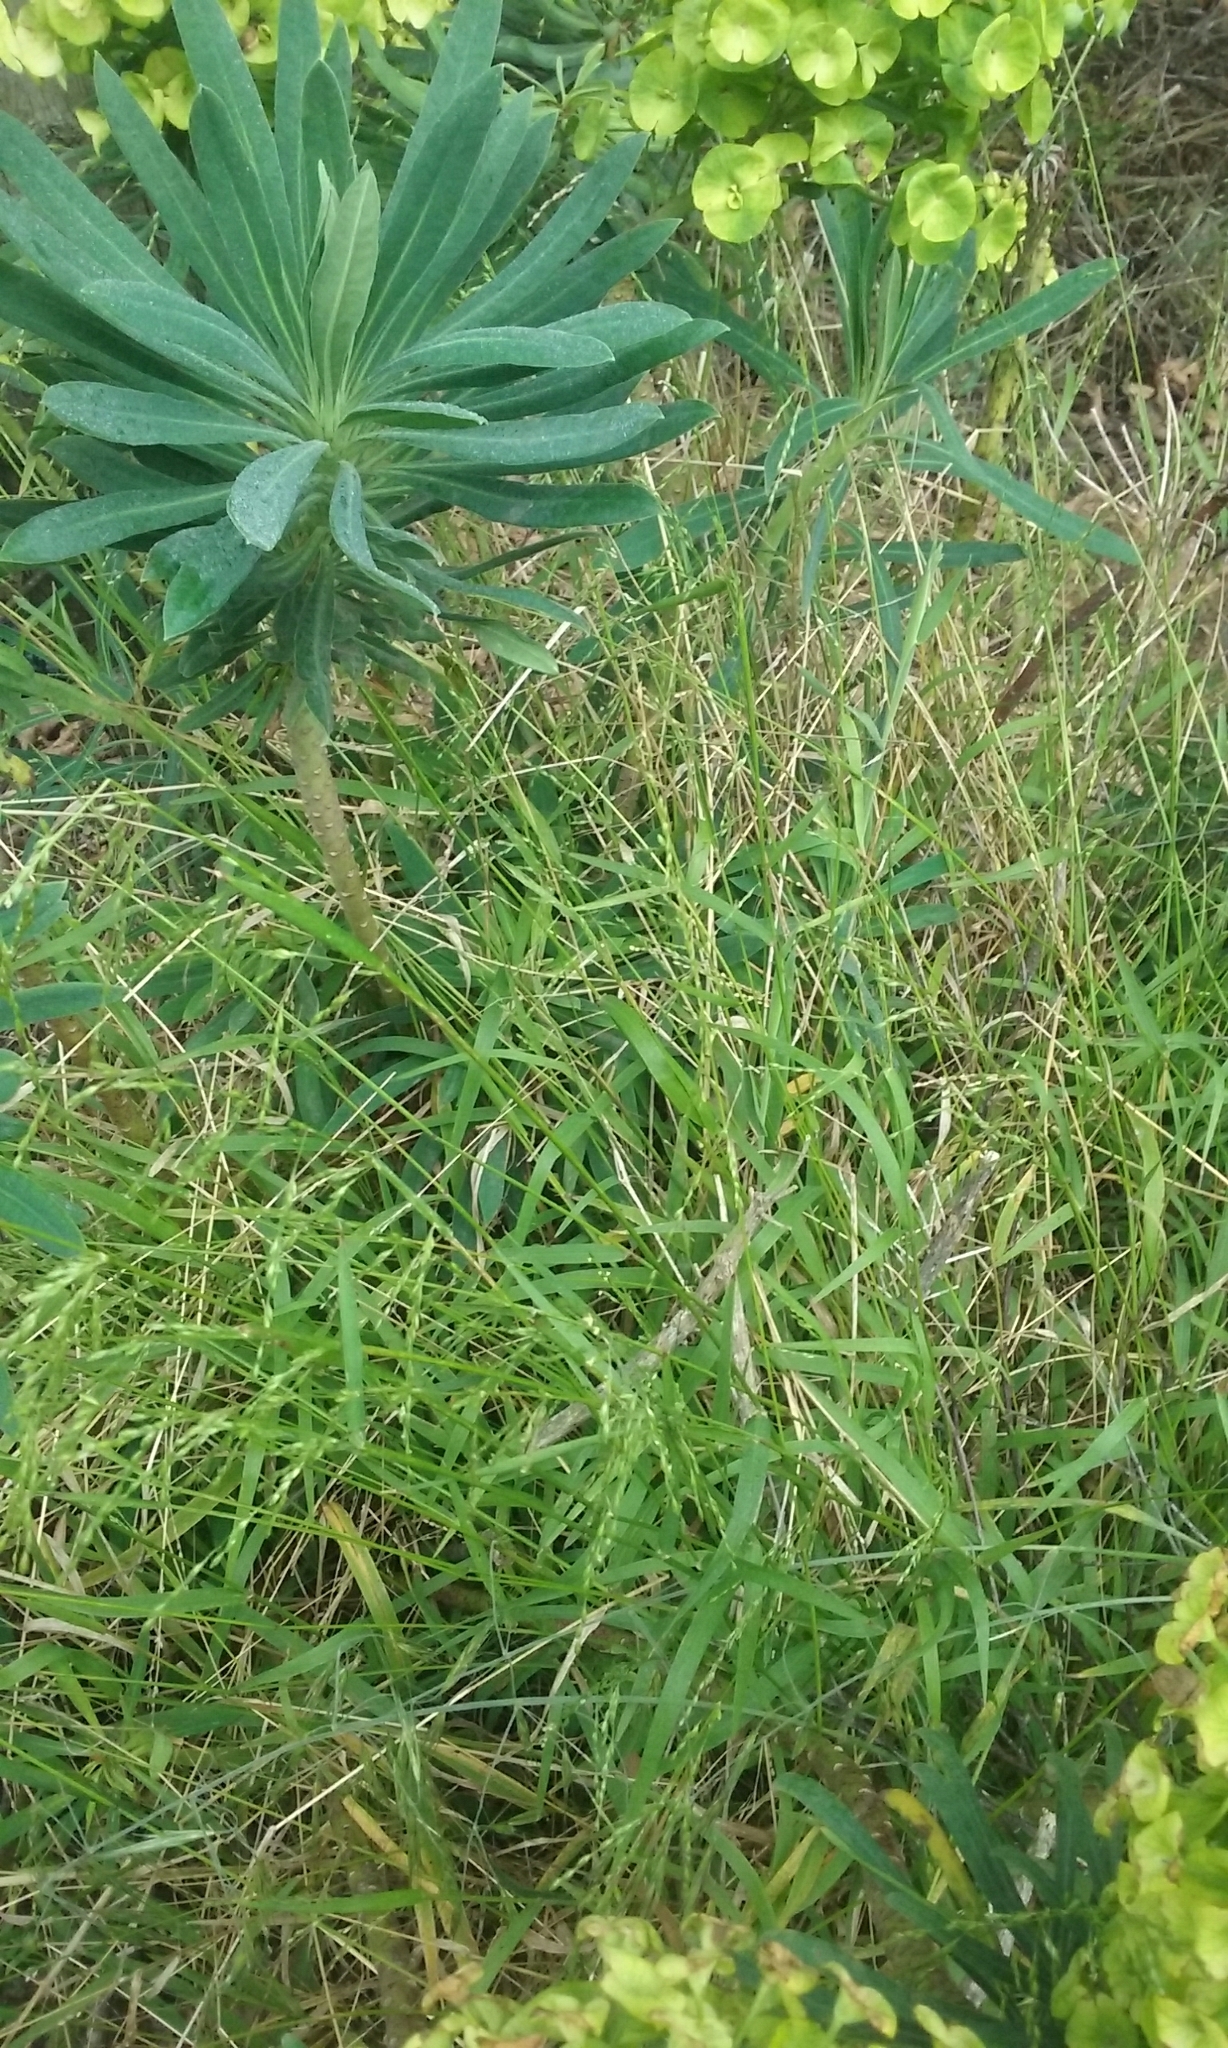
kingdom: Plantae
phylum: Tracheophyta
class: Liliopsida
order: Poales
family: Poaceae
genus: Ehrharta
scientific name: Ehrharta erecta
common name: Panic veldtgrass
